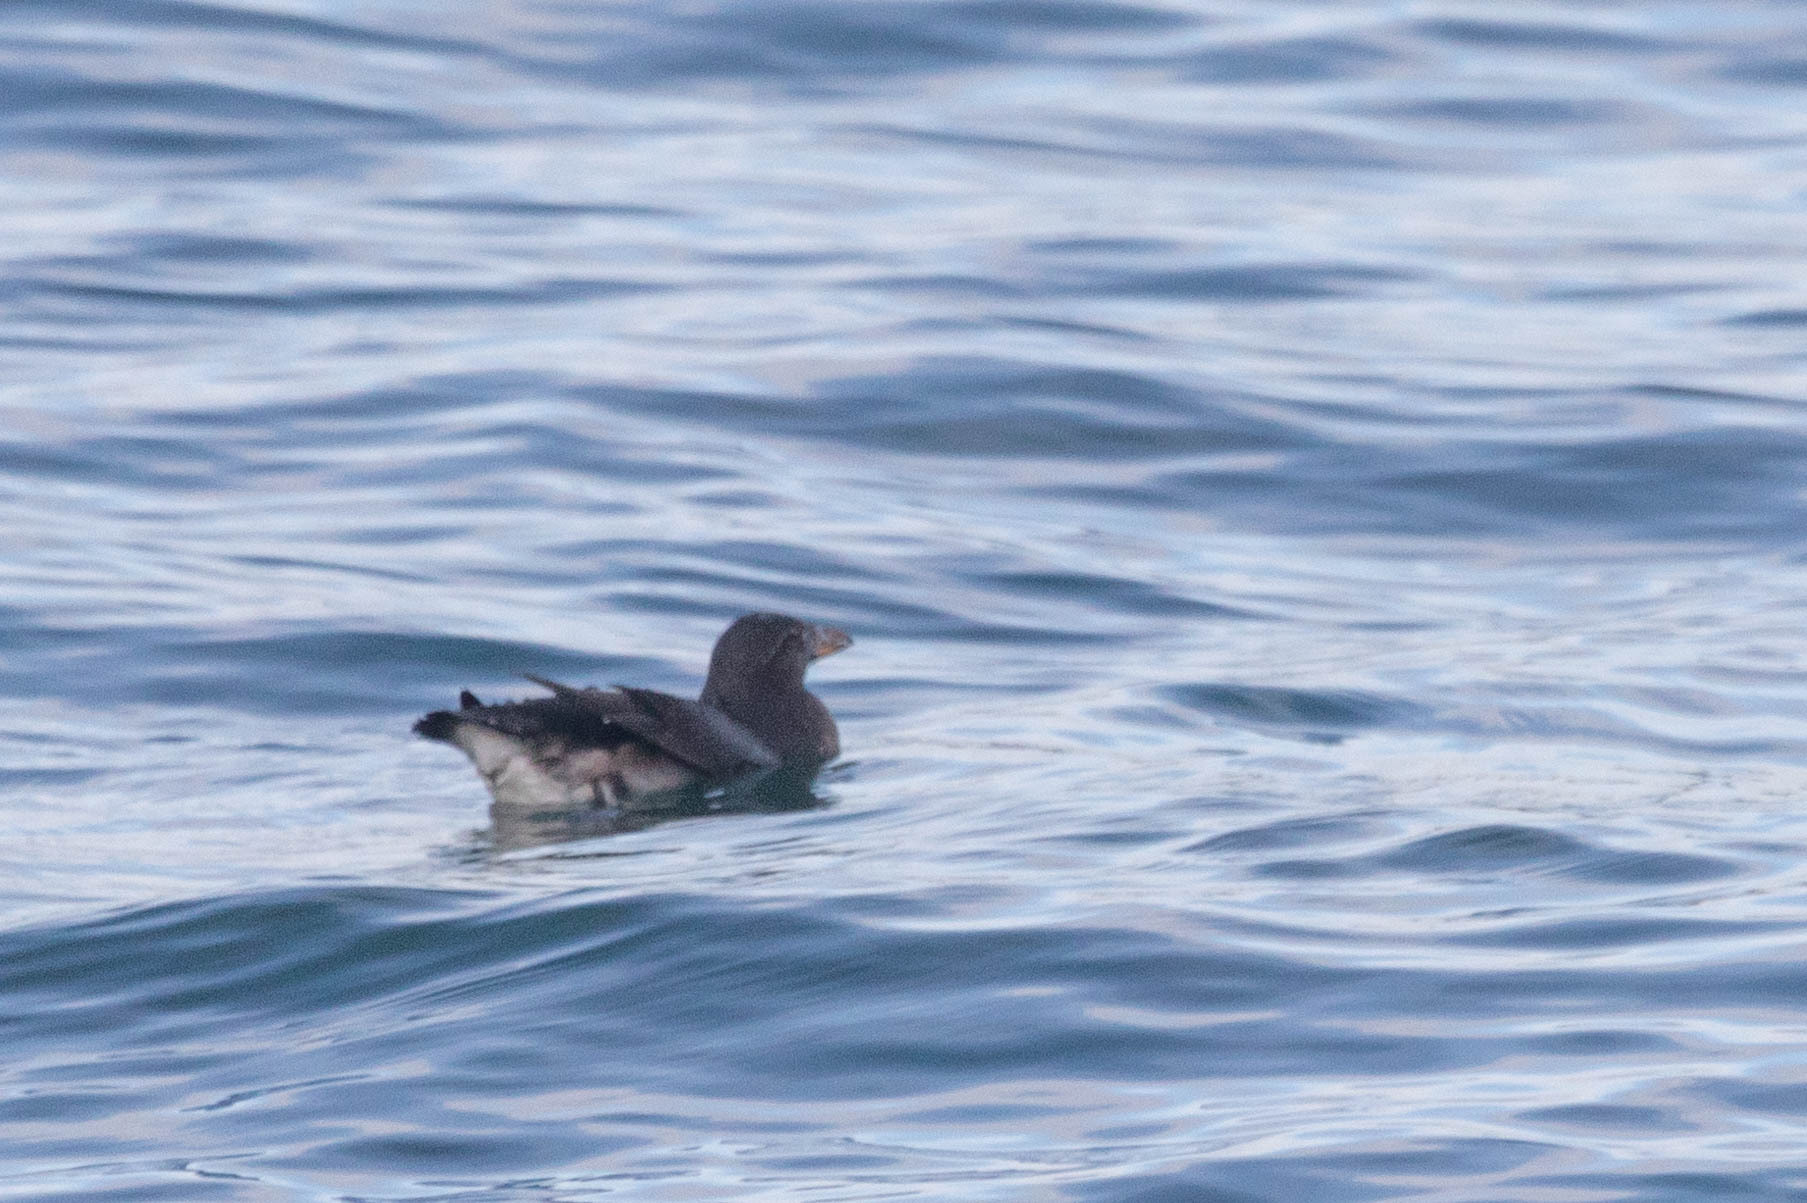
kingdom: Animalia
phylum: Chordata
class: Aves
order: Charadriiformes
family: Alcidae
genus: Cerorhinca
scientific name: Cerorhinca monocerata
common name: Rhinoceros auklet
